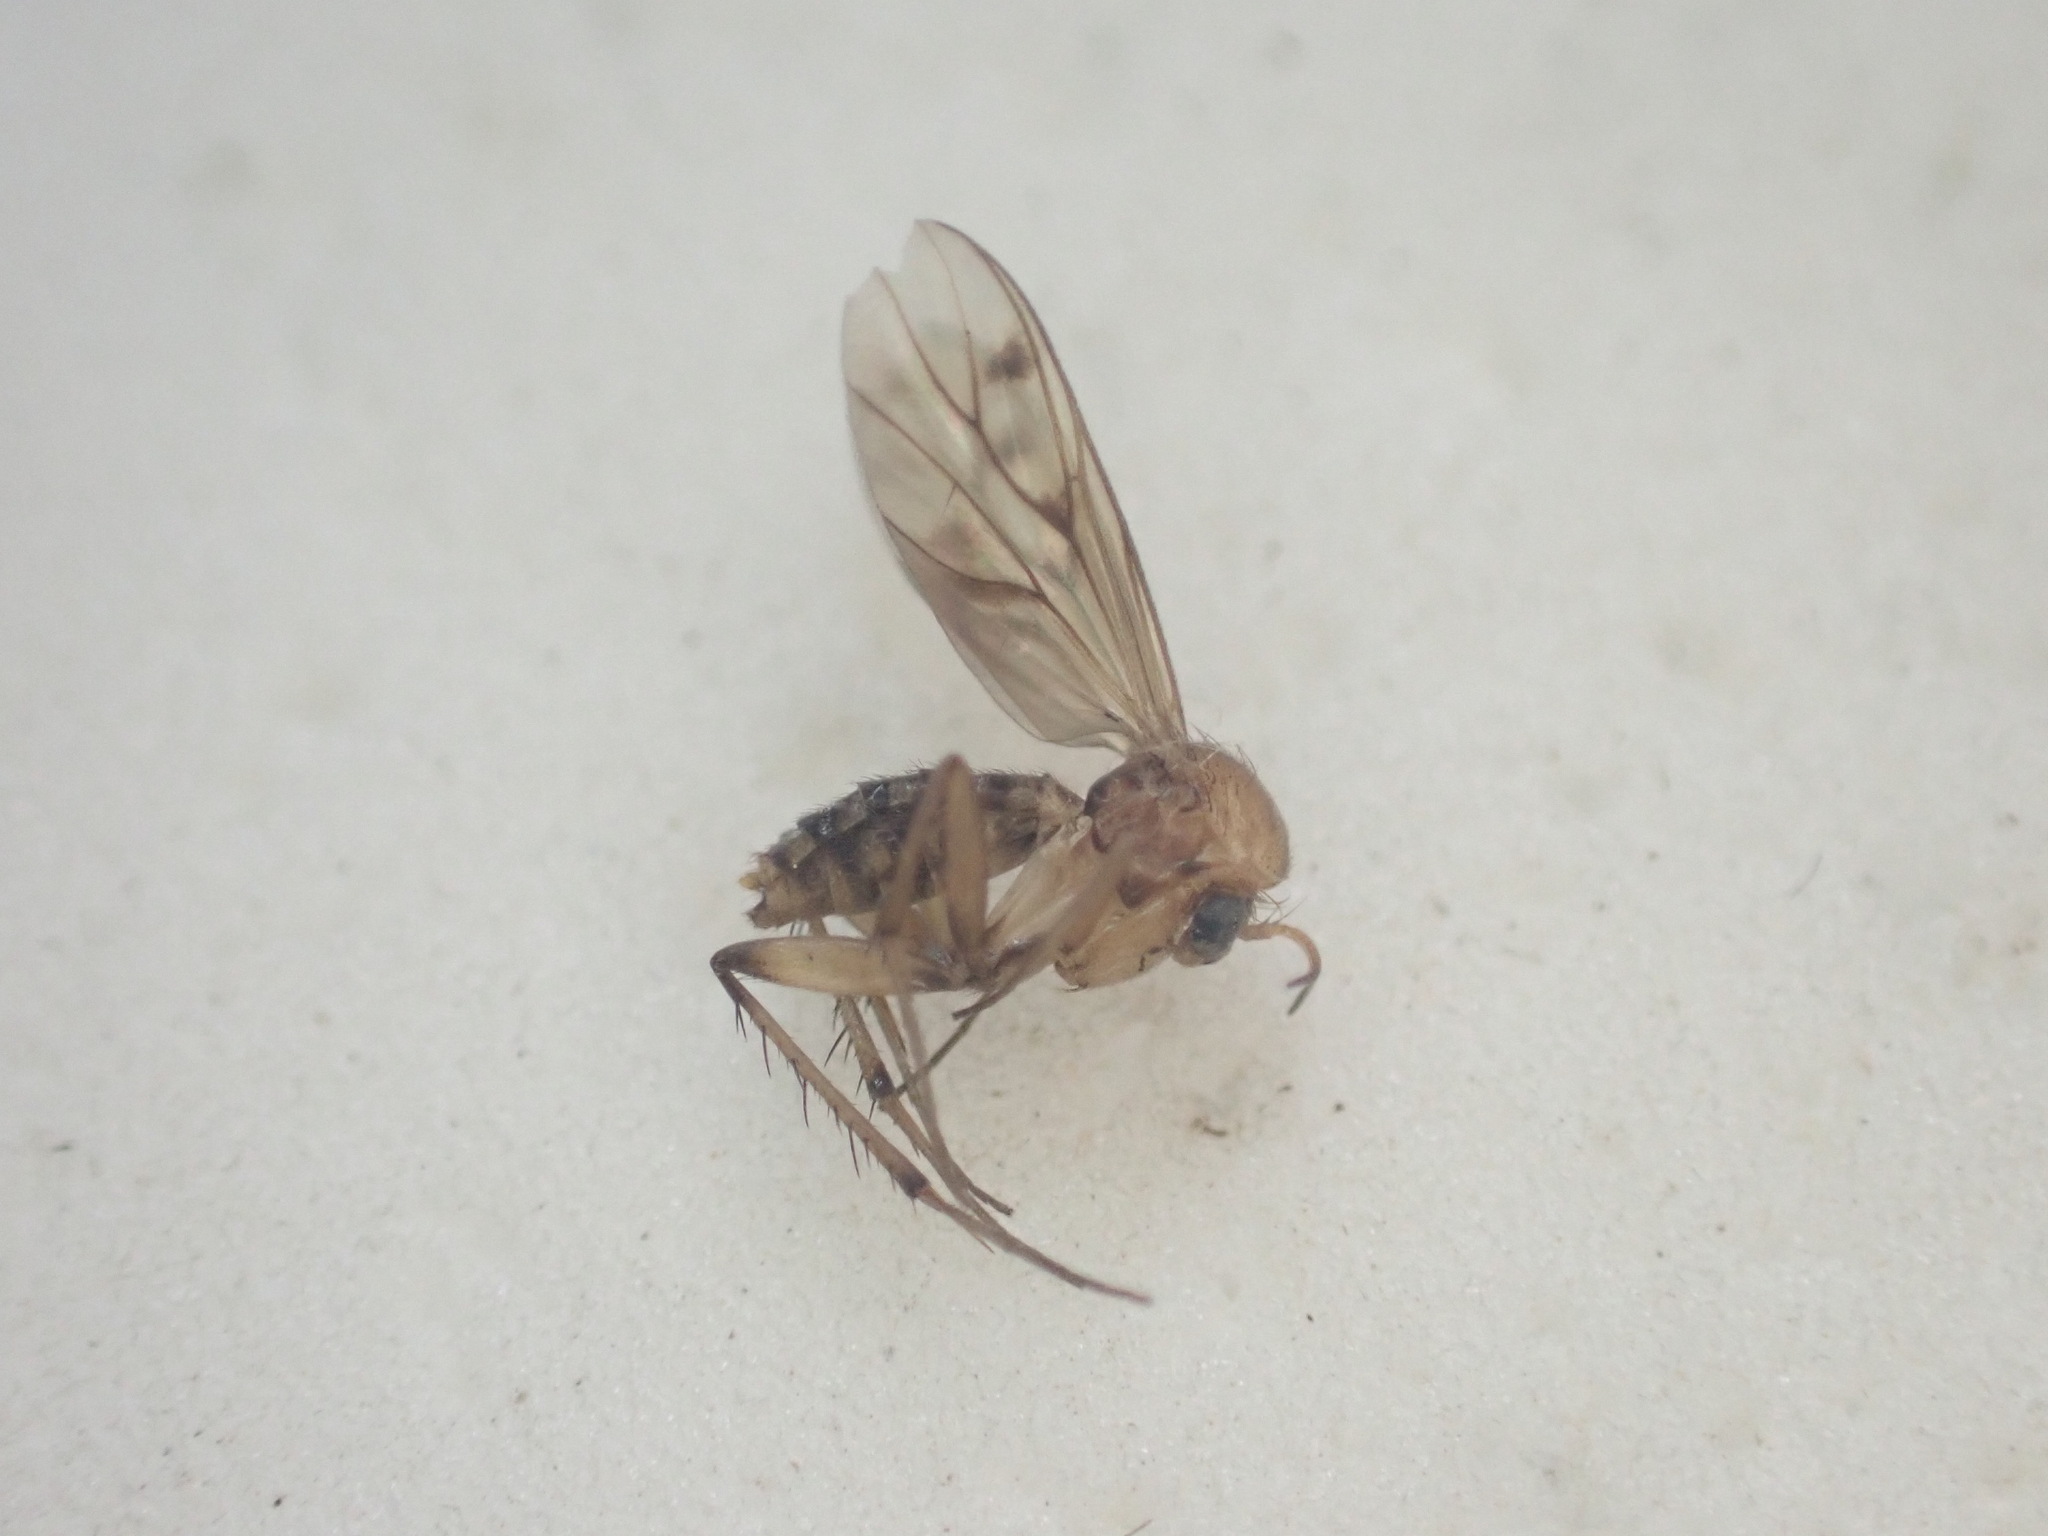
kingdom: Animalia
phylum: Arthropoda
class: Insecta
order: Diptera
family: Mycetophilidae
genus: Anomalomyia
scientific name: Anomalomyia guttata
